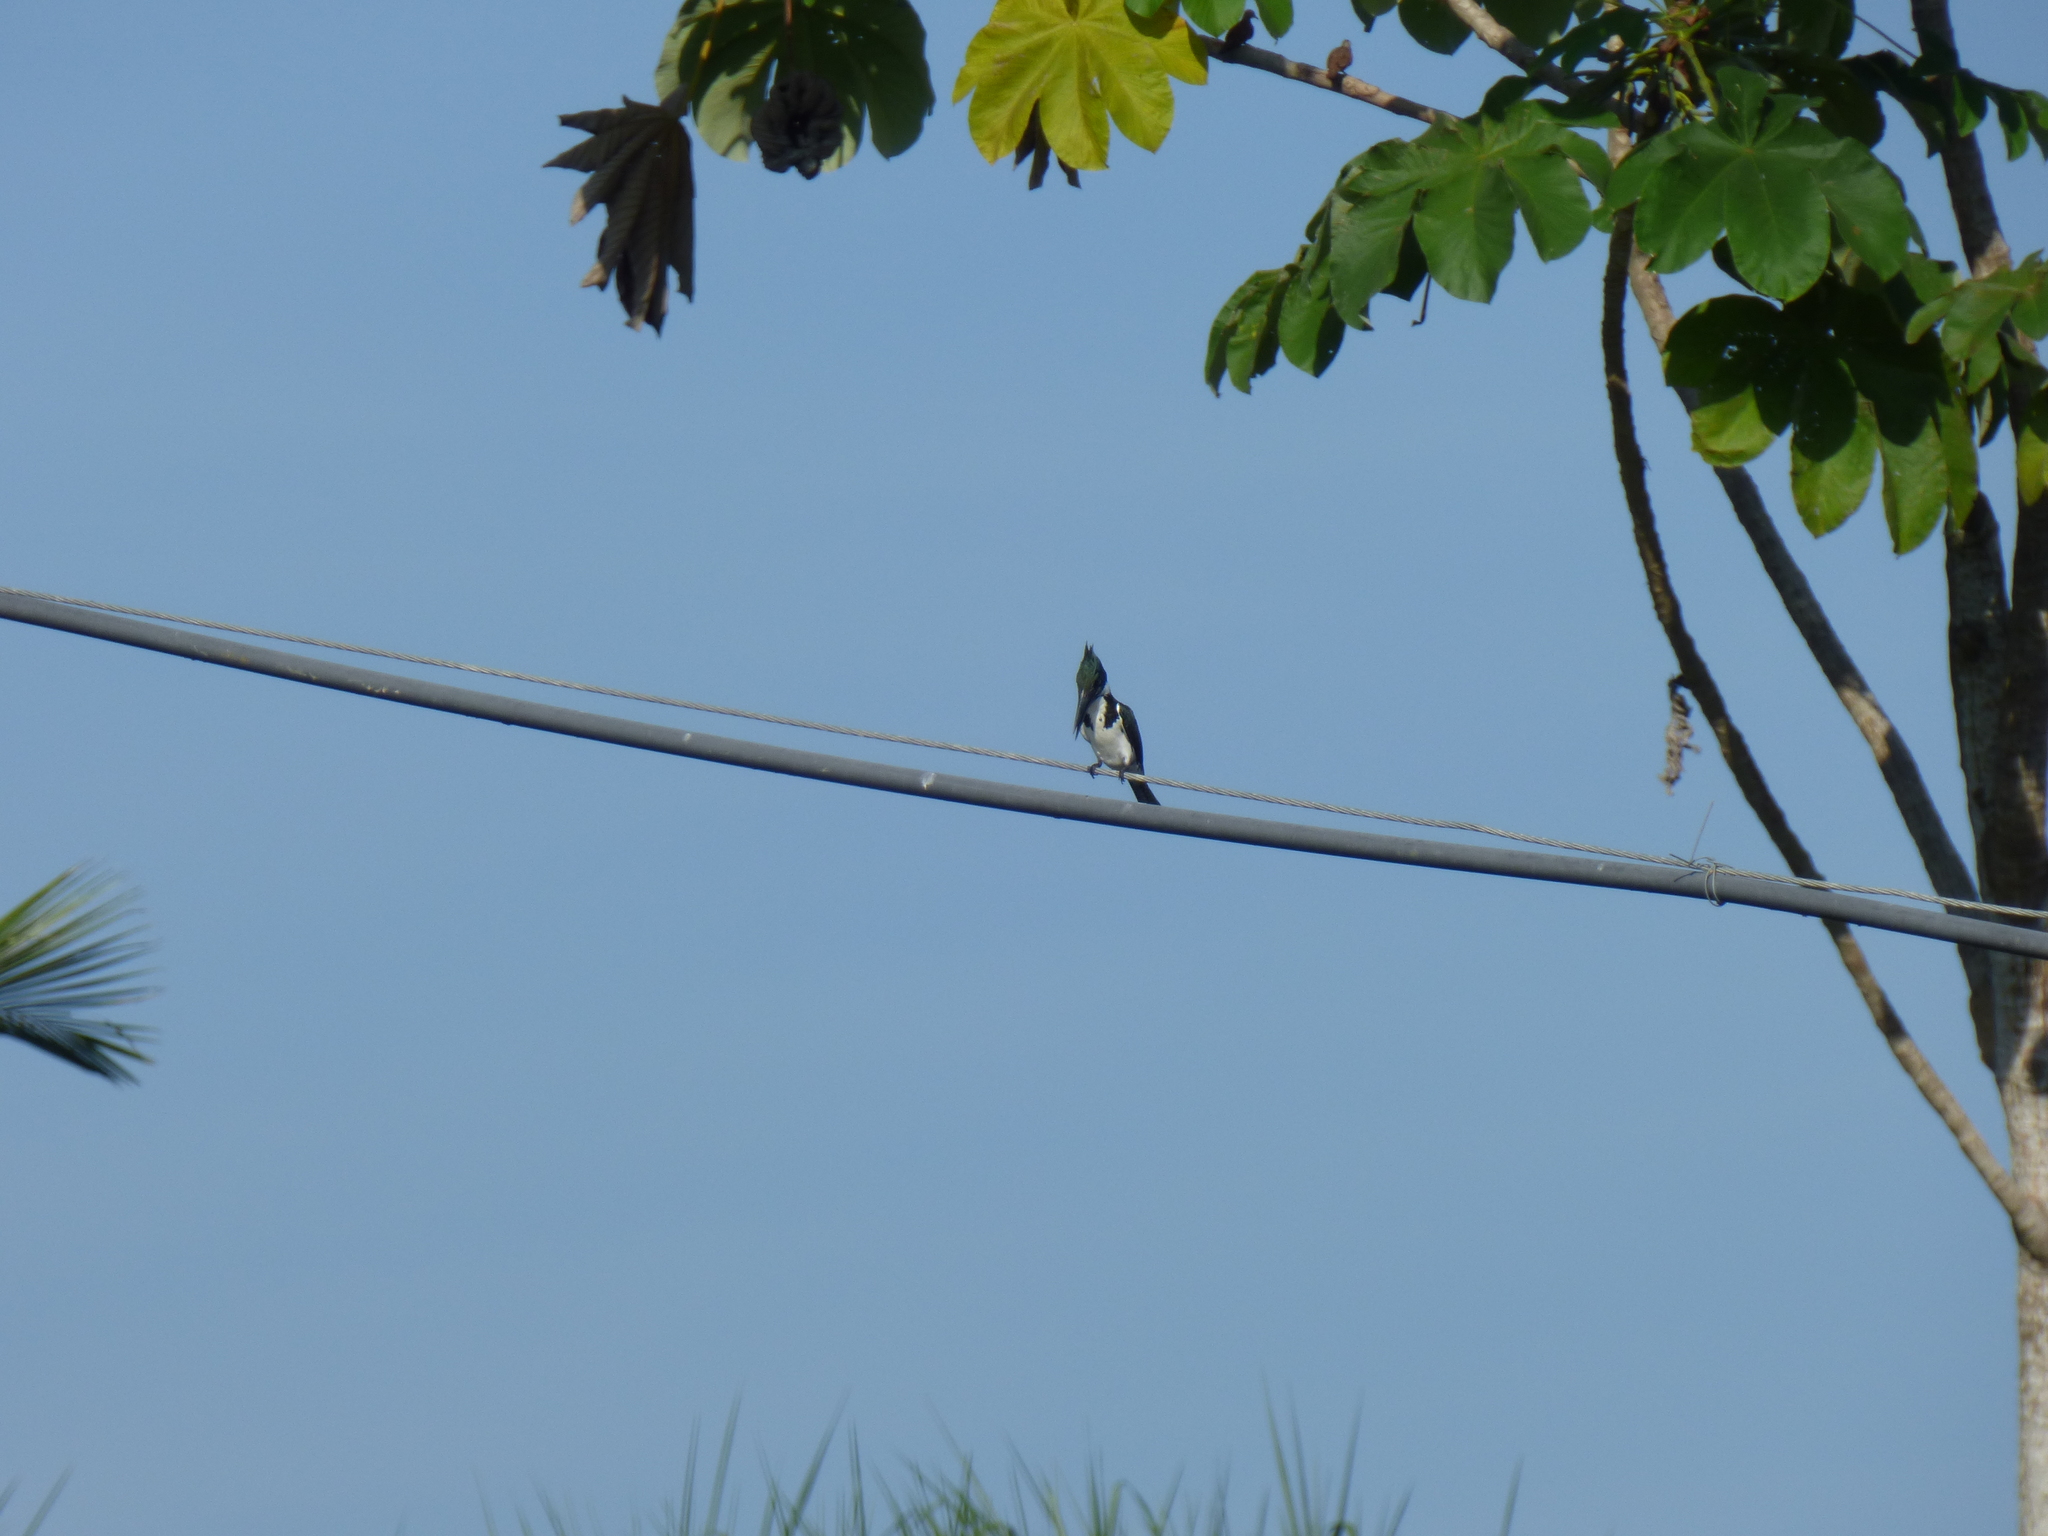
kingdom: Animalia
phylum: Chordata
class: Aves
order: Coraciiformes
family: Alcedinidae
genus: Chloroceryle
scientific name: Chloroceryle amazona
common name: Amazon kingfisher
